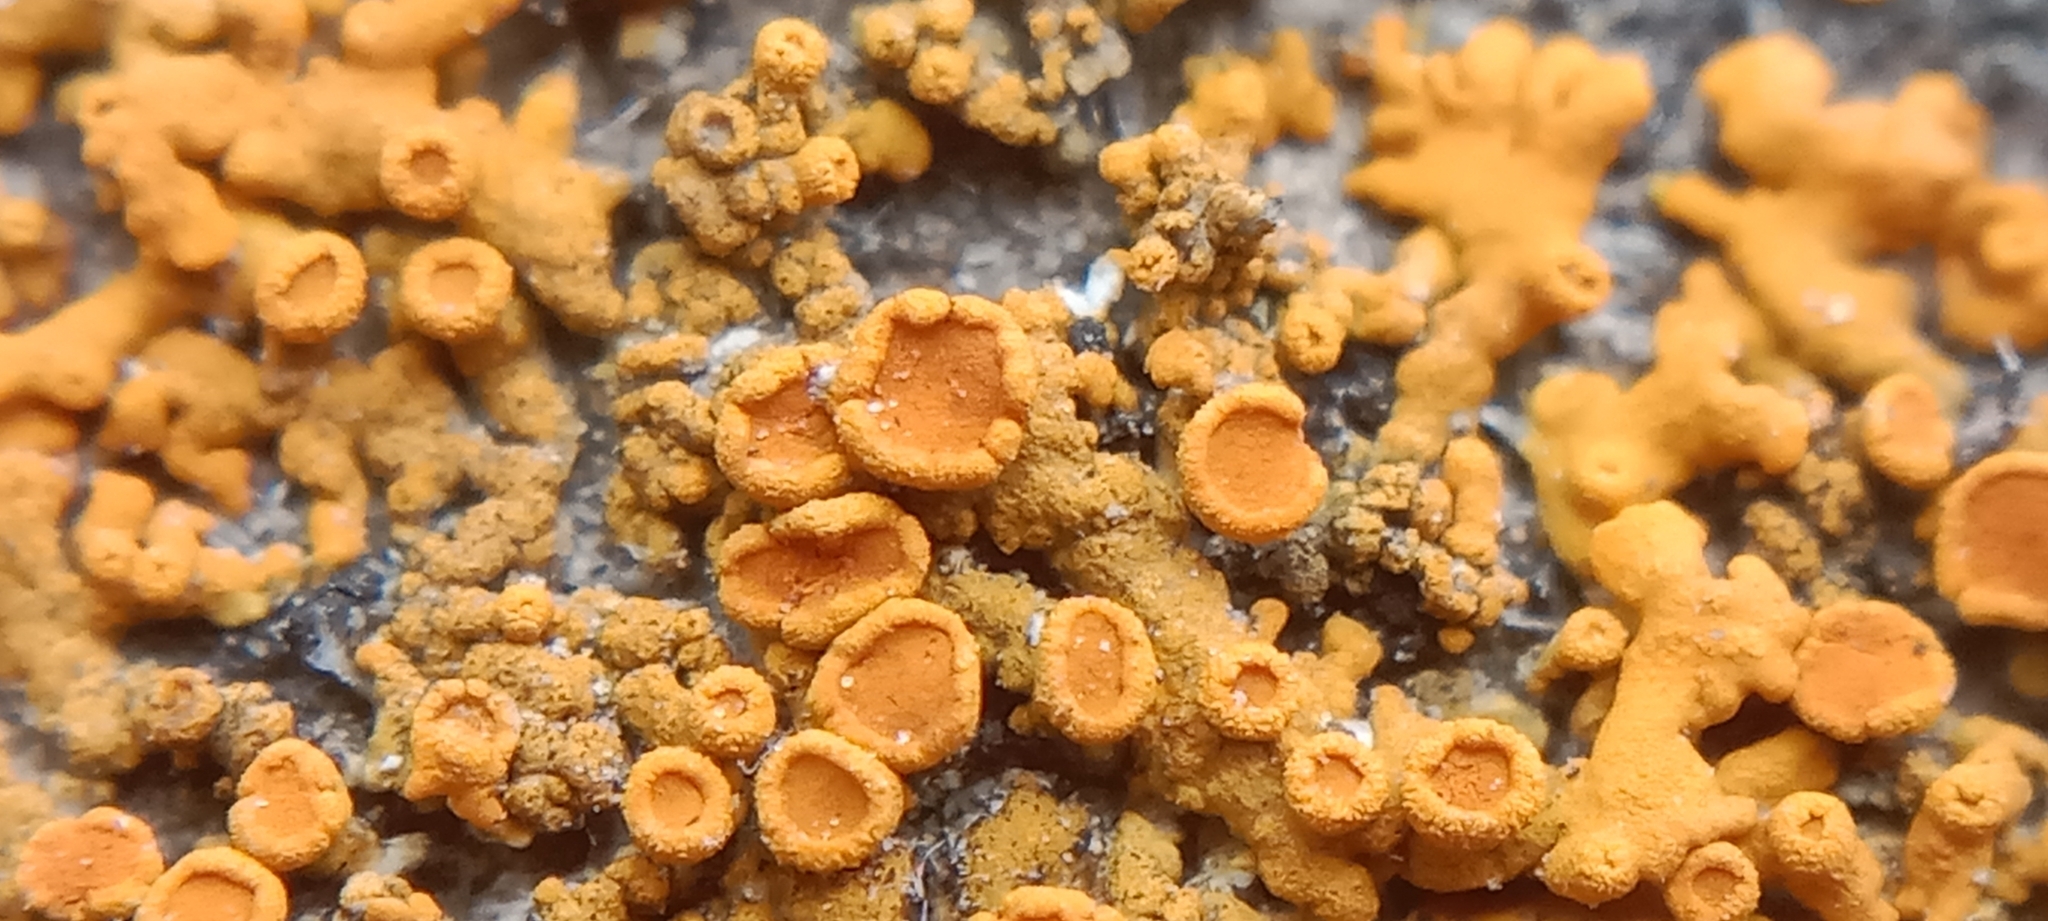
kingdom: Fungi
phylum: Ascomycota
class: Lecanoromycetes
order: Teloschistales
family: Teloschistaceae
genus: Xanthoria
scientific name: Xanthoria elegans
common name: Elegant sunburst lichen
